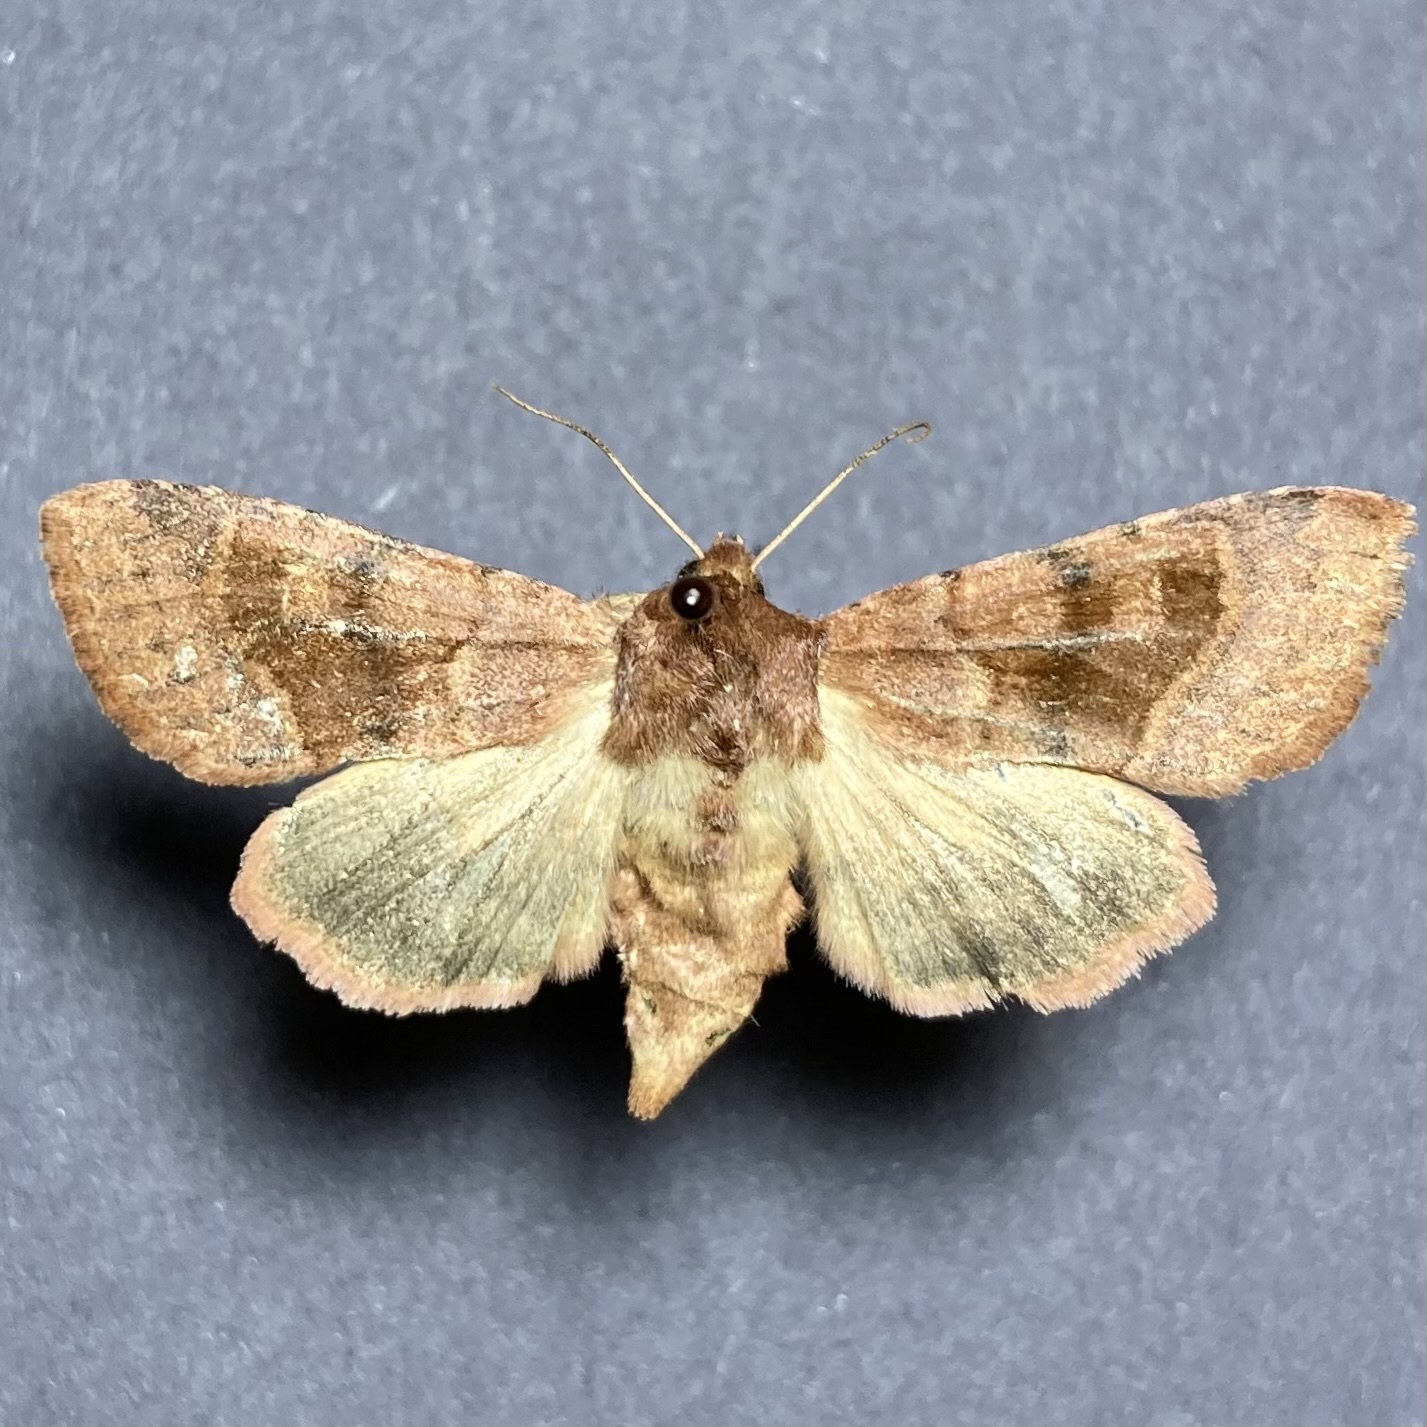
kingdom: Animalia
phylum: Arthropoda
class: Insecta
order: Lepidoptera
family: Noctuidae
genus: Nephelodes
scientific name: Nephelodes minians
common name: Bronzed cutworm
